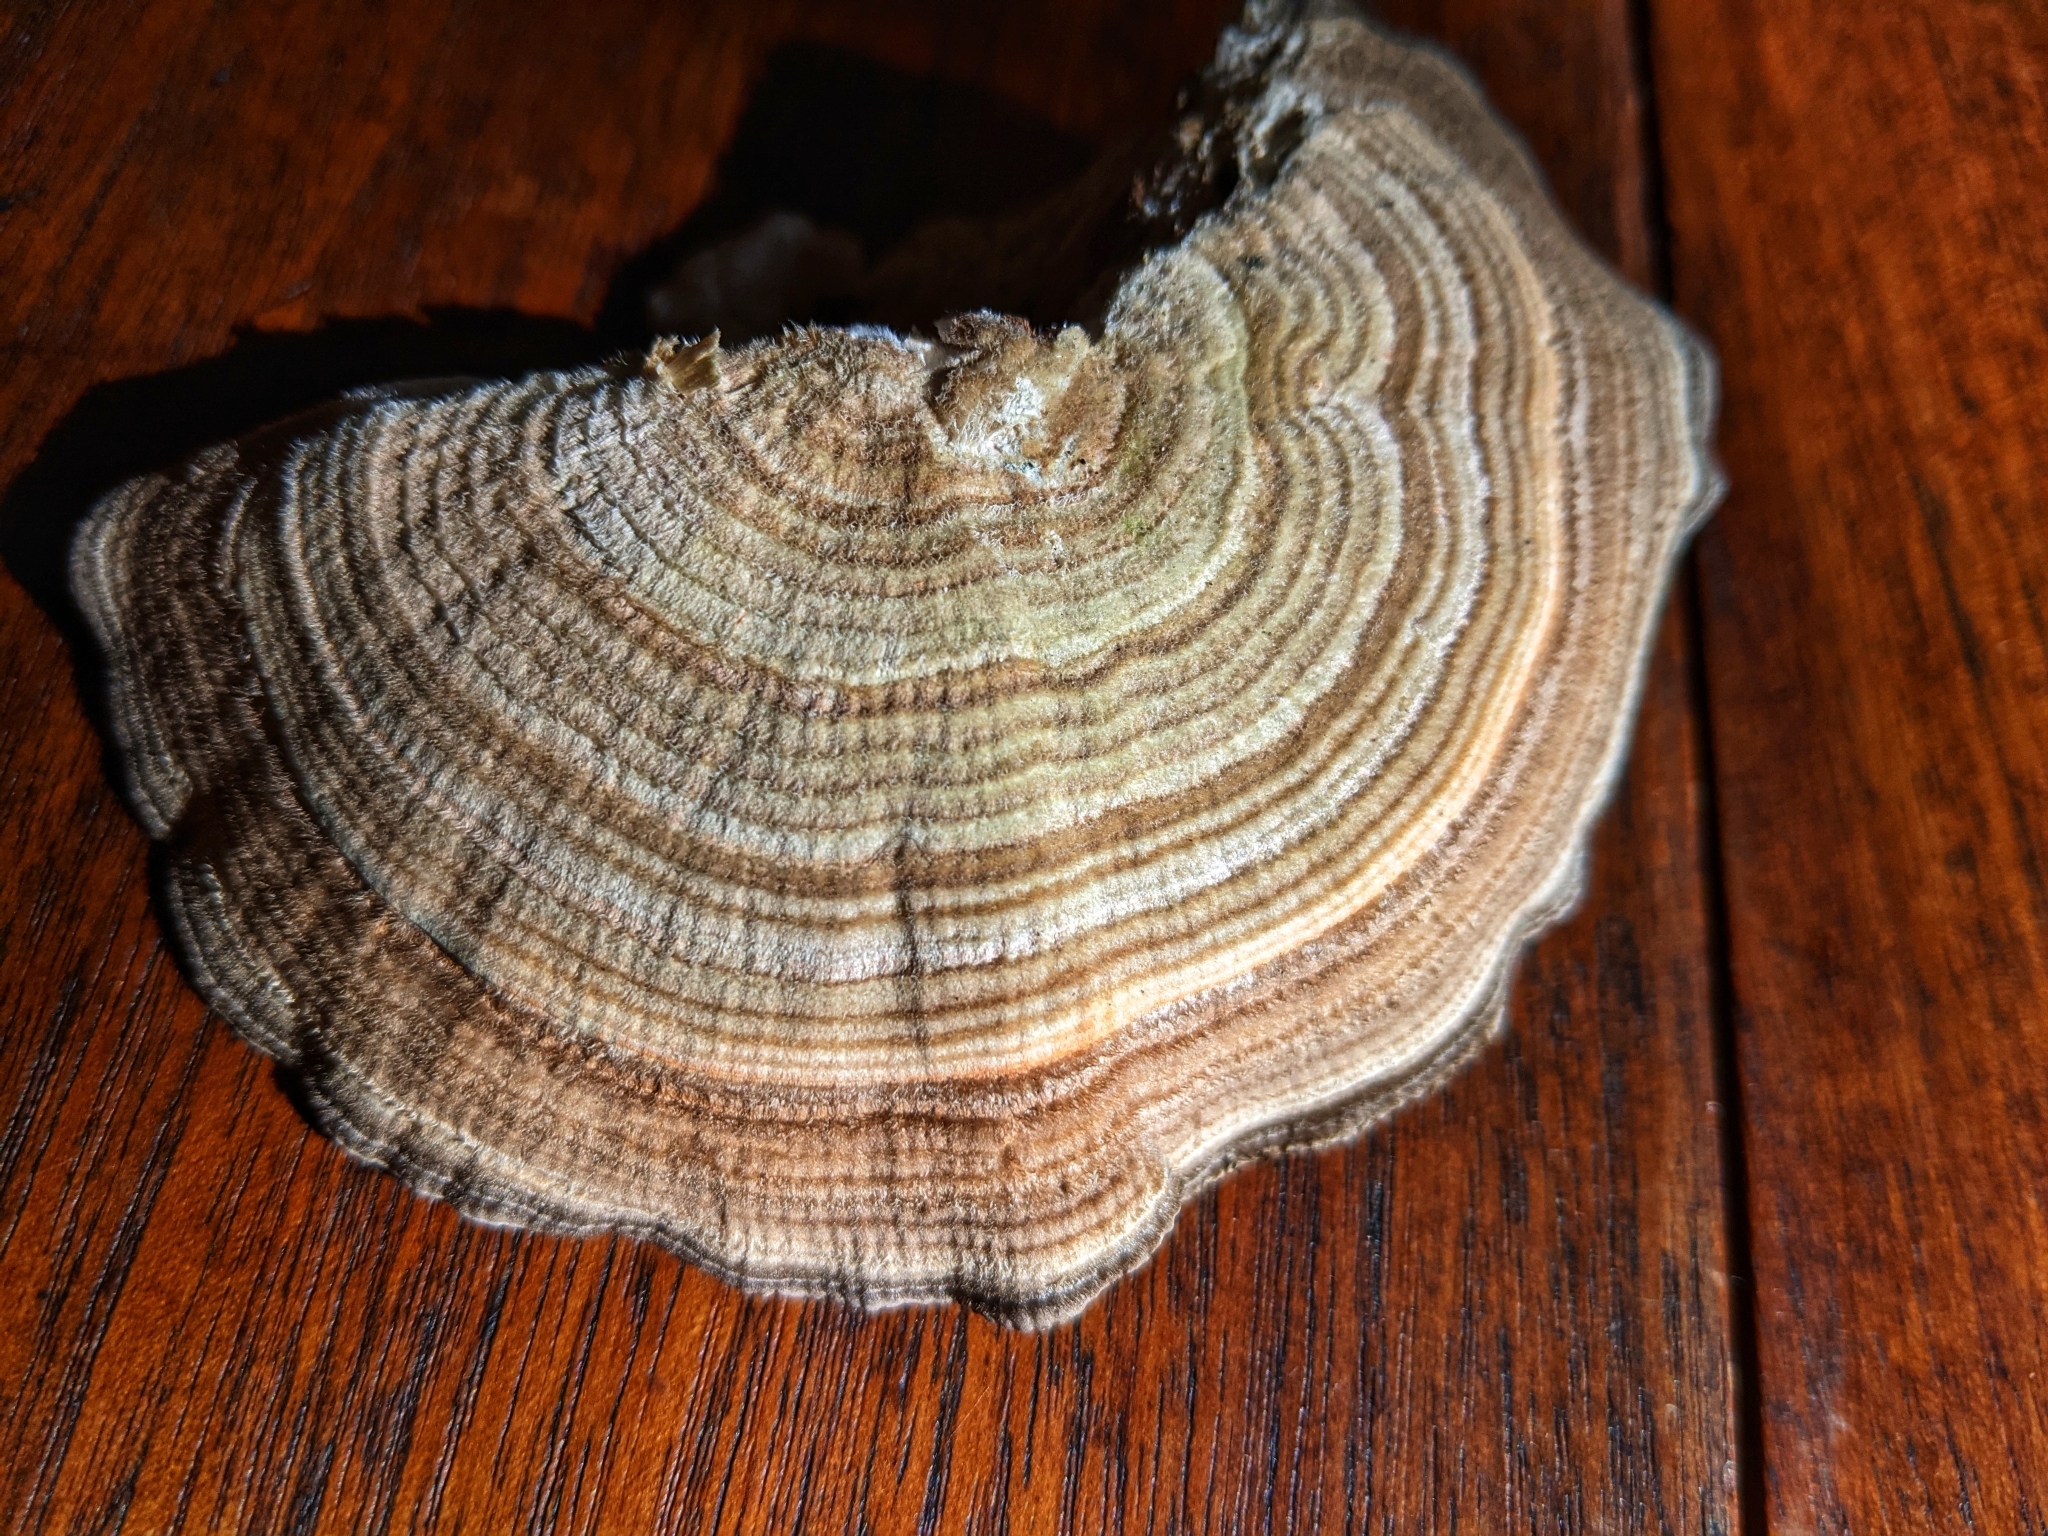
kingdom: Fungi
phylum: Basidiomycota
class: Agaricomycetes
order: Polyporales
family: Polyporaceae
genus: Lenzites
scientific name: Lenzites betulinus
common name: Birch mazegill
